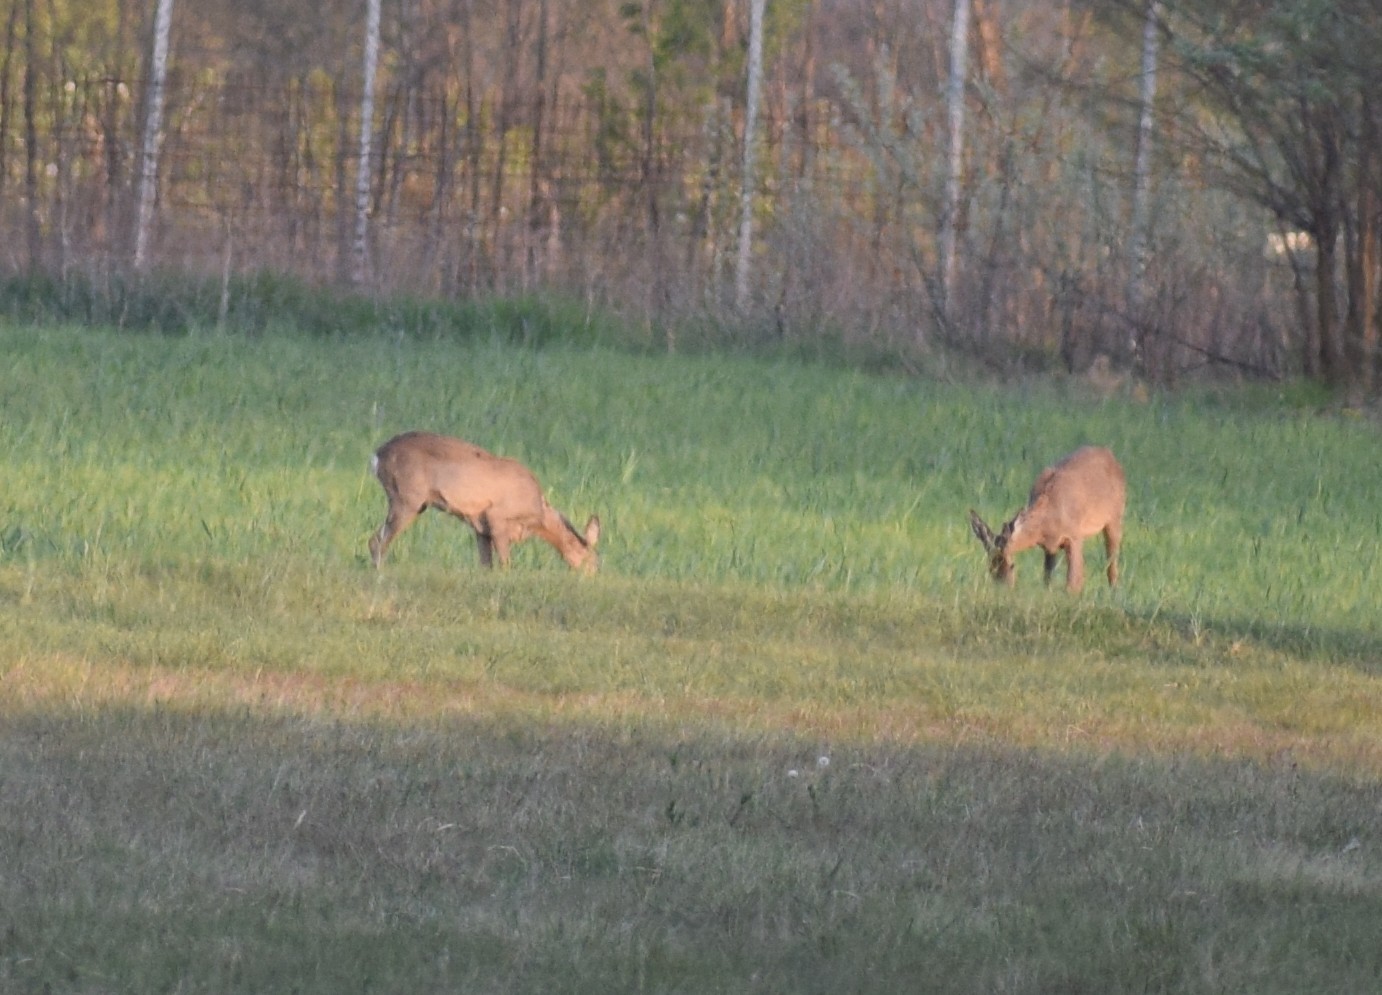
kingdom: Animalia
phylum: Chordata
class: Mammalia
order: Artiodactyla
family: Cervidae
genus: Capreolus
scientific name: Capreolus capreolus
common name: Western roe deer
